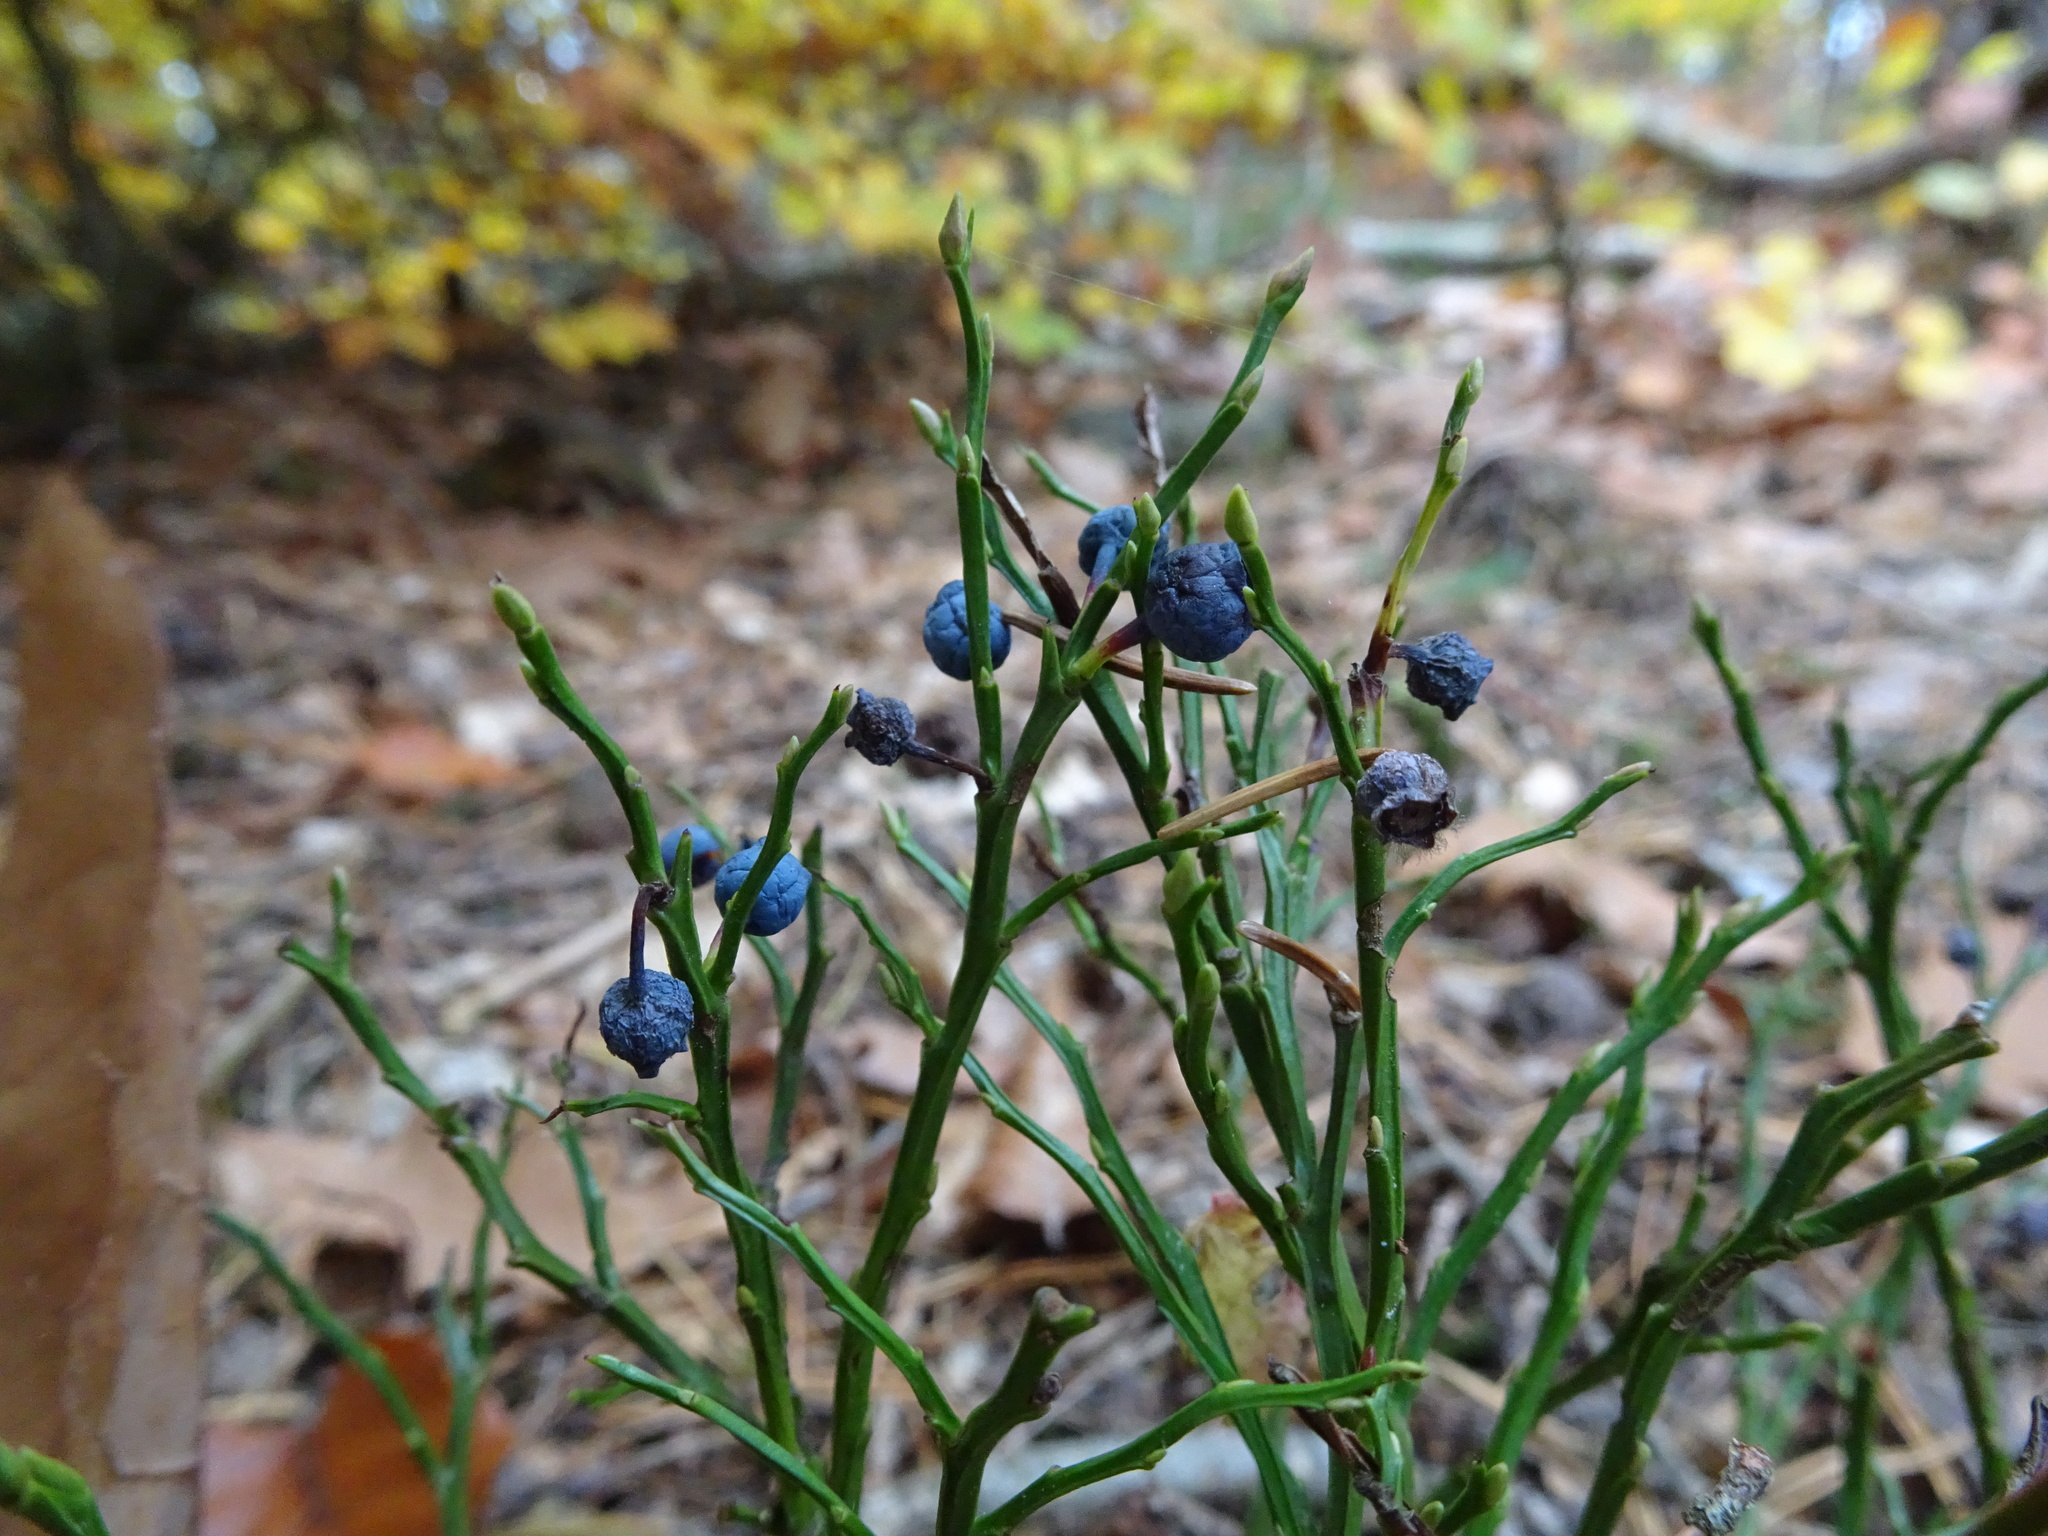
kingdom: Plantae
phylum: Tracheophyta
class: Magnoliopsida
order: Ericales
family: Ericaceae
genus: Vaccinium
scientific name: Vaccinium myrtillus
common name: Bilberry
